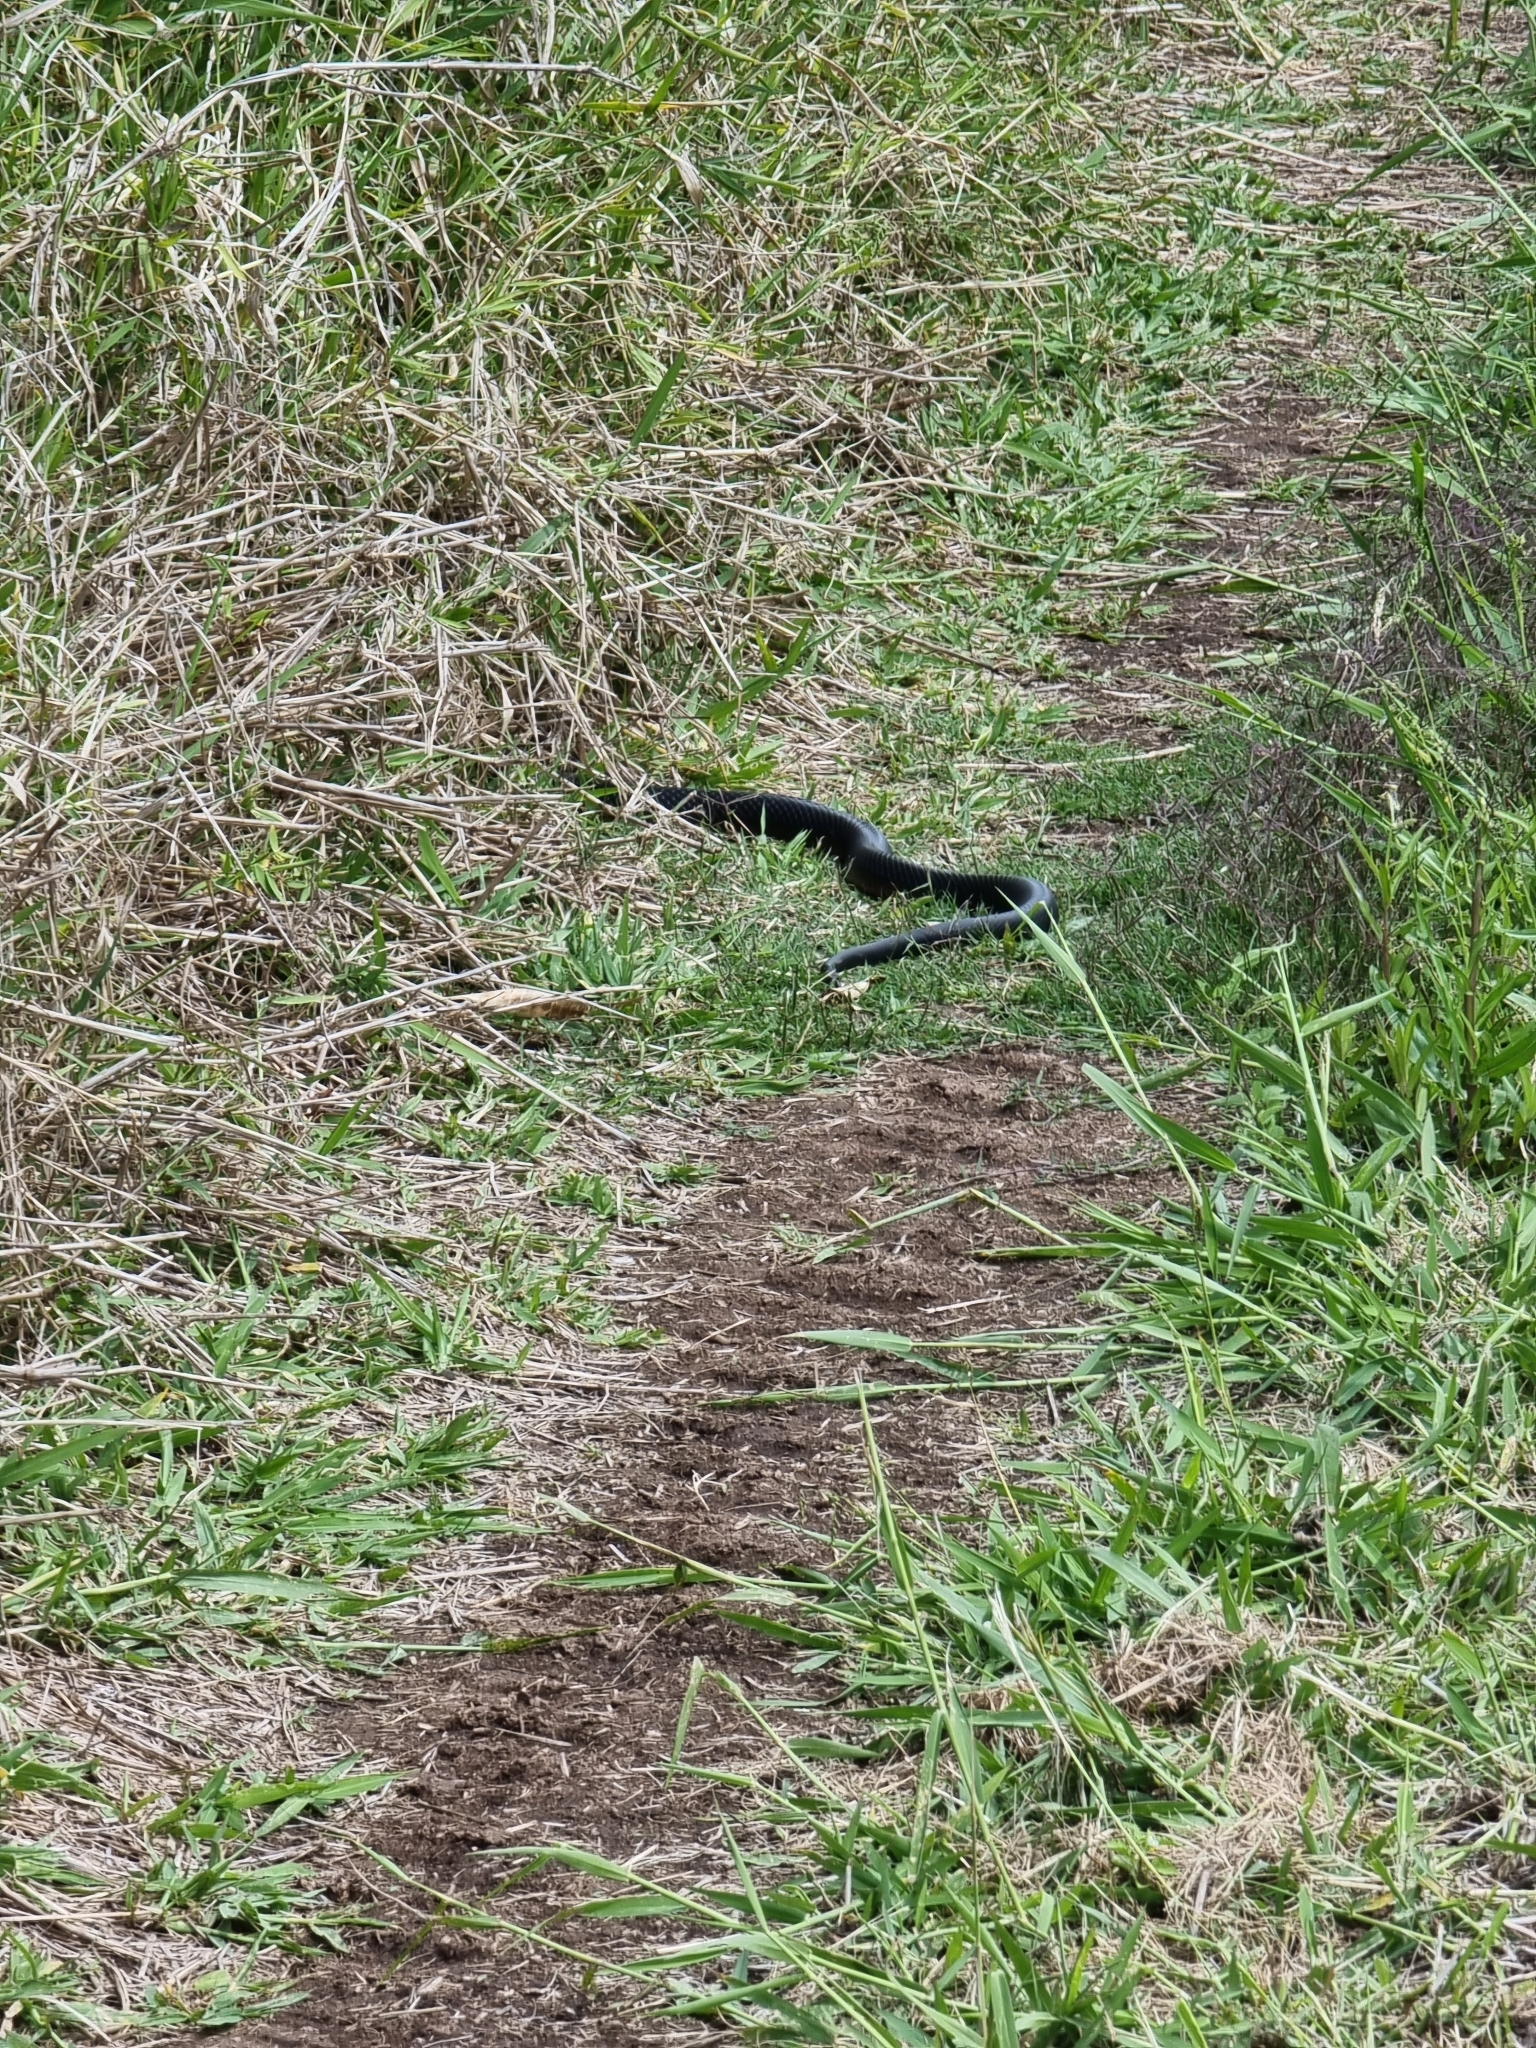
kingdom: Animalia
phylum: Chordata
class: Squamata
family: Elapidae
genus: Pseudechis
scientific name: Pseudechis porphyriacus
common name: Australian black snake
